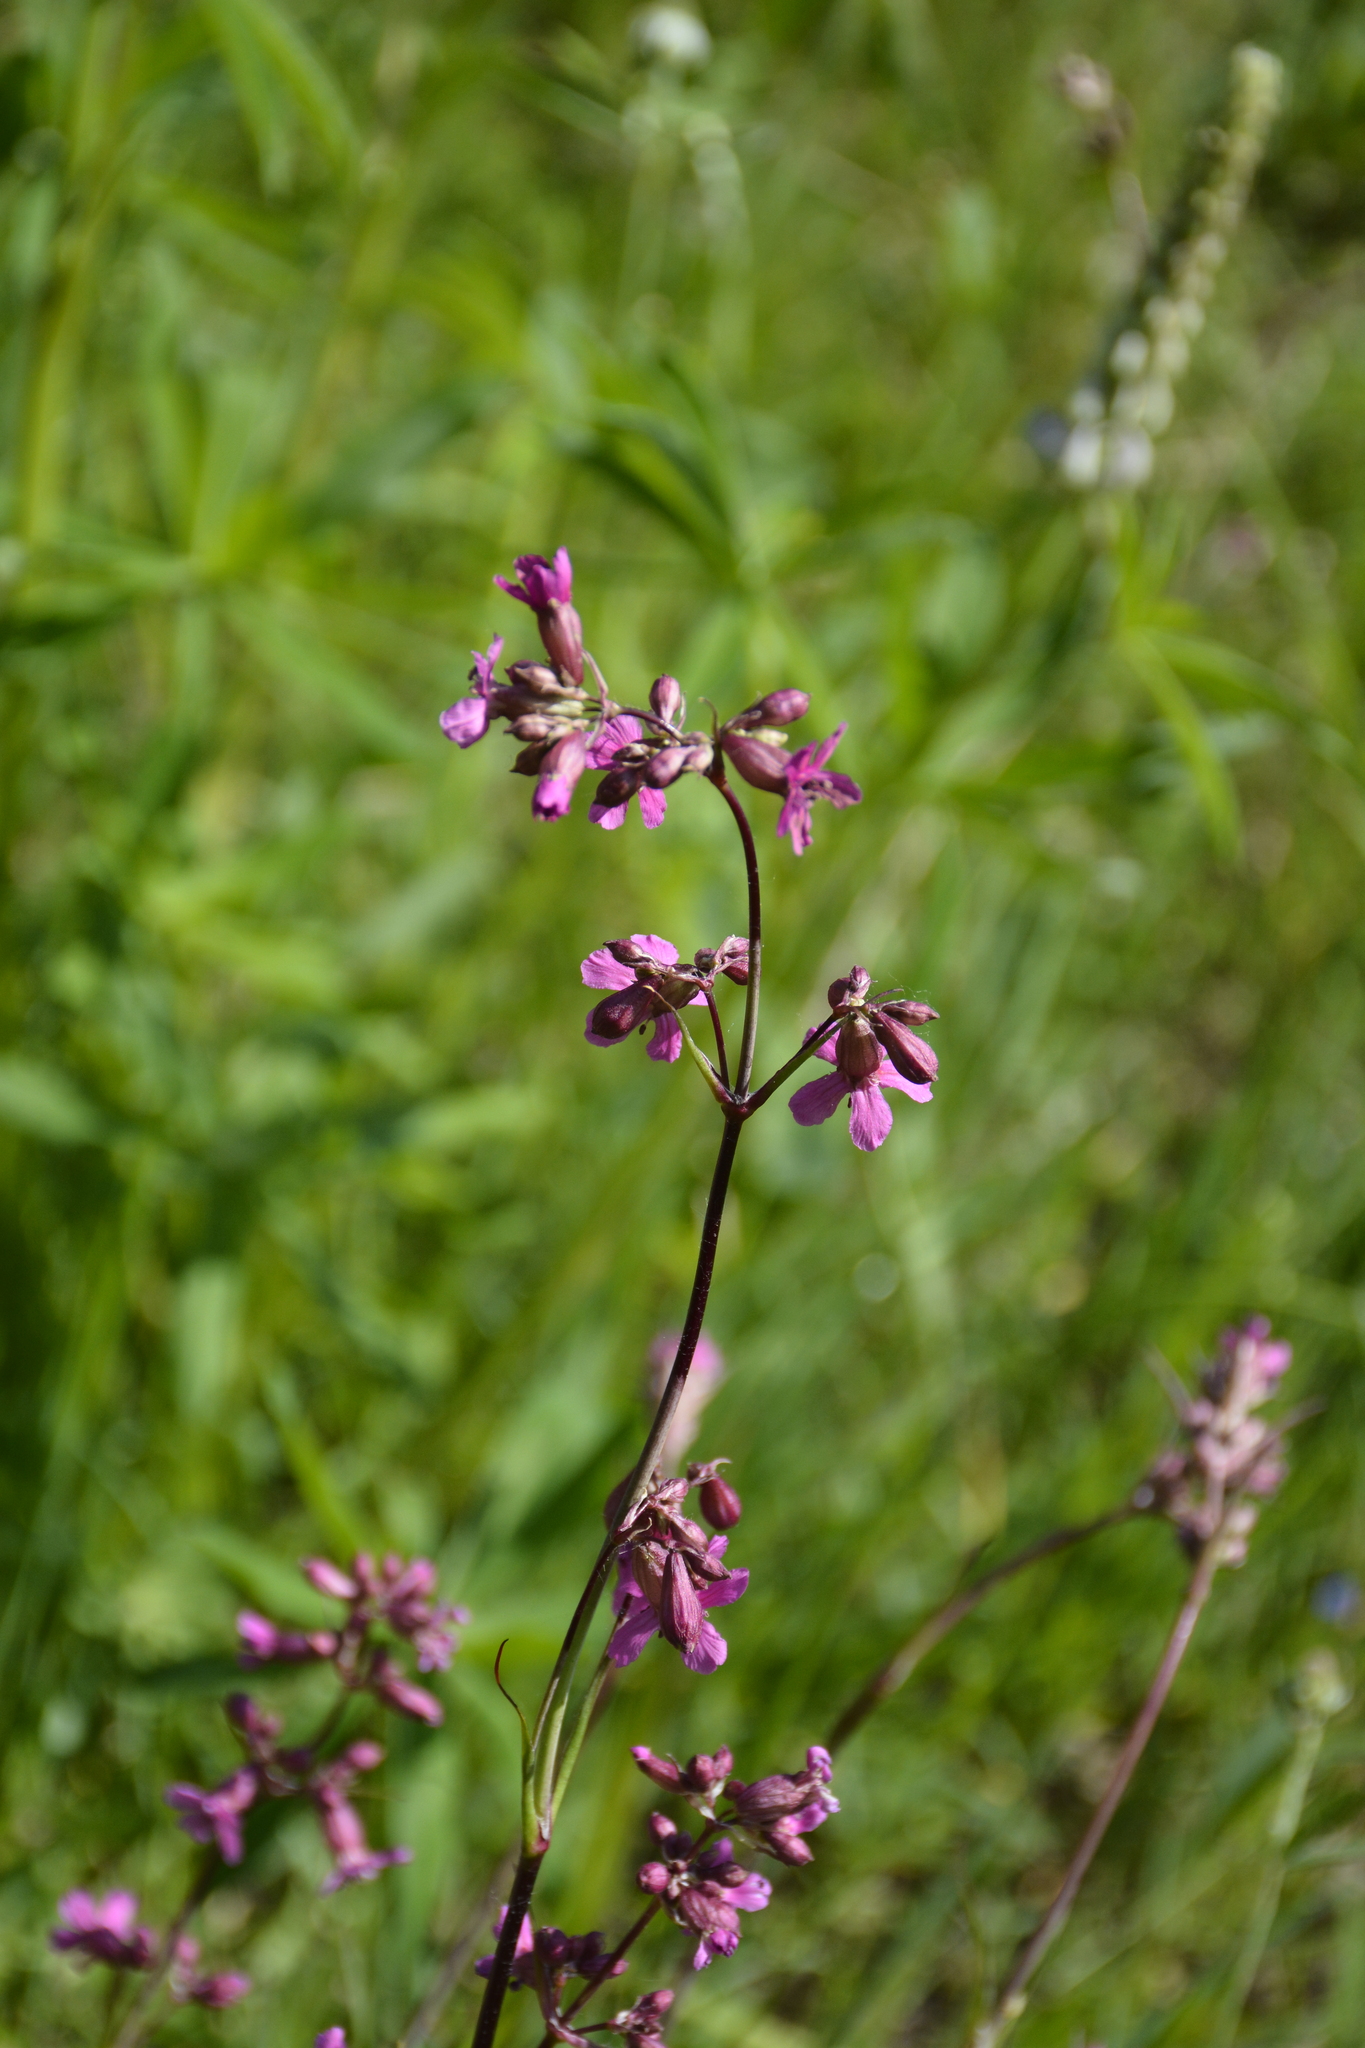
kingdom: Plantae
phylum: Tracheophyta
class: Magnoliopsida
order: Caryophyllales
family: Caryophyllaceae
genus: Viscaria
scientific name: Viscaria vulgaris
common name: Clammy campion
